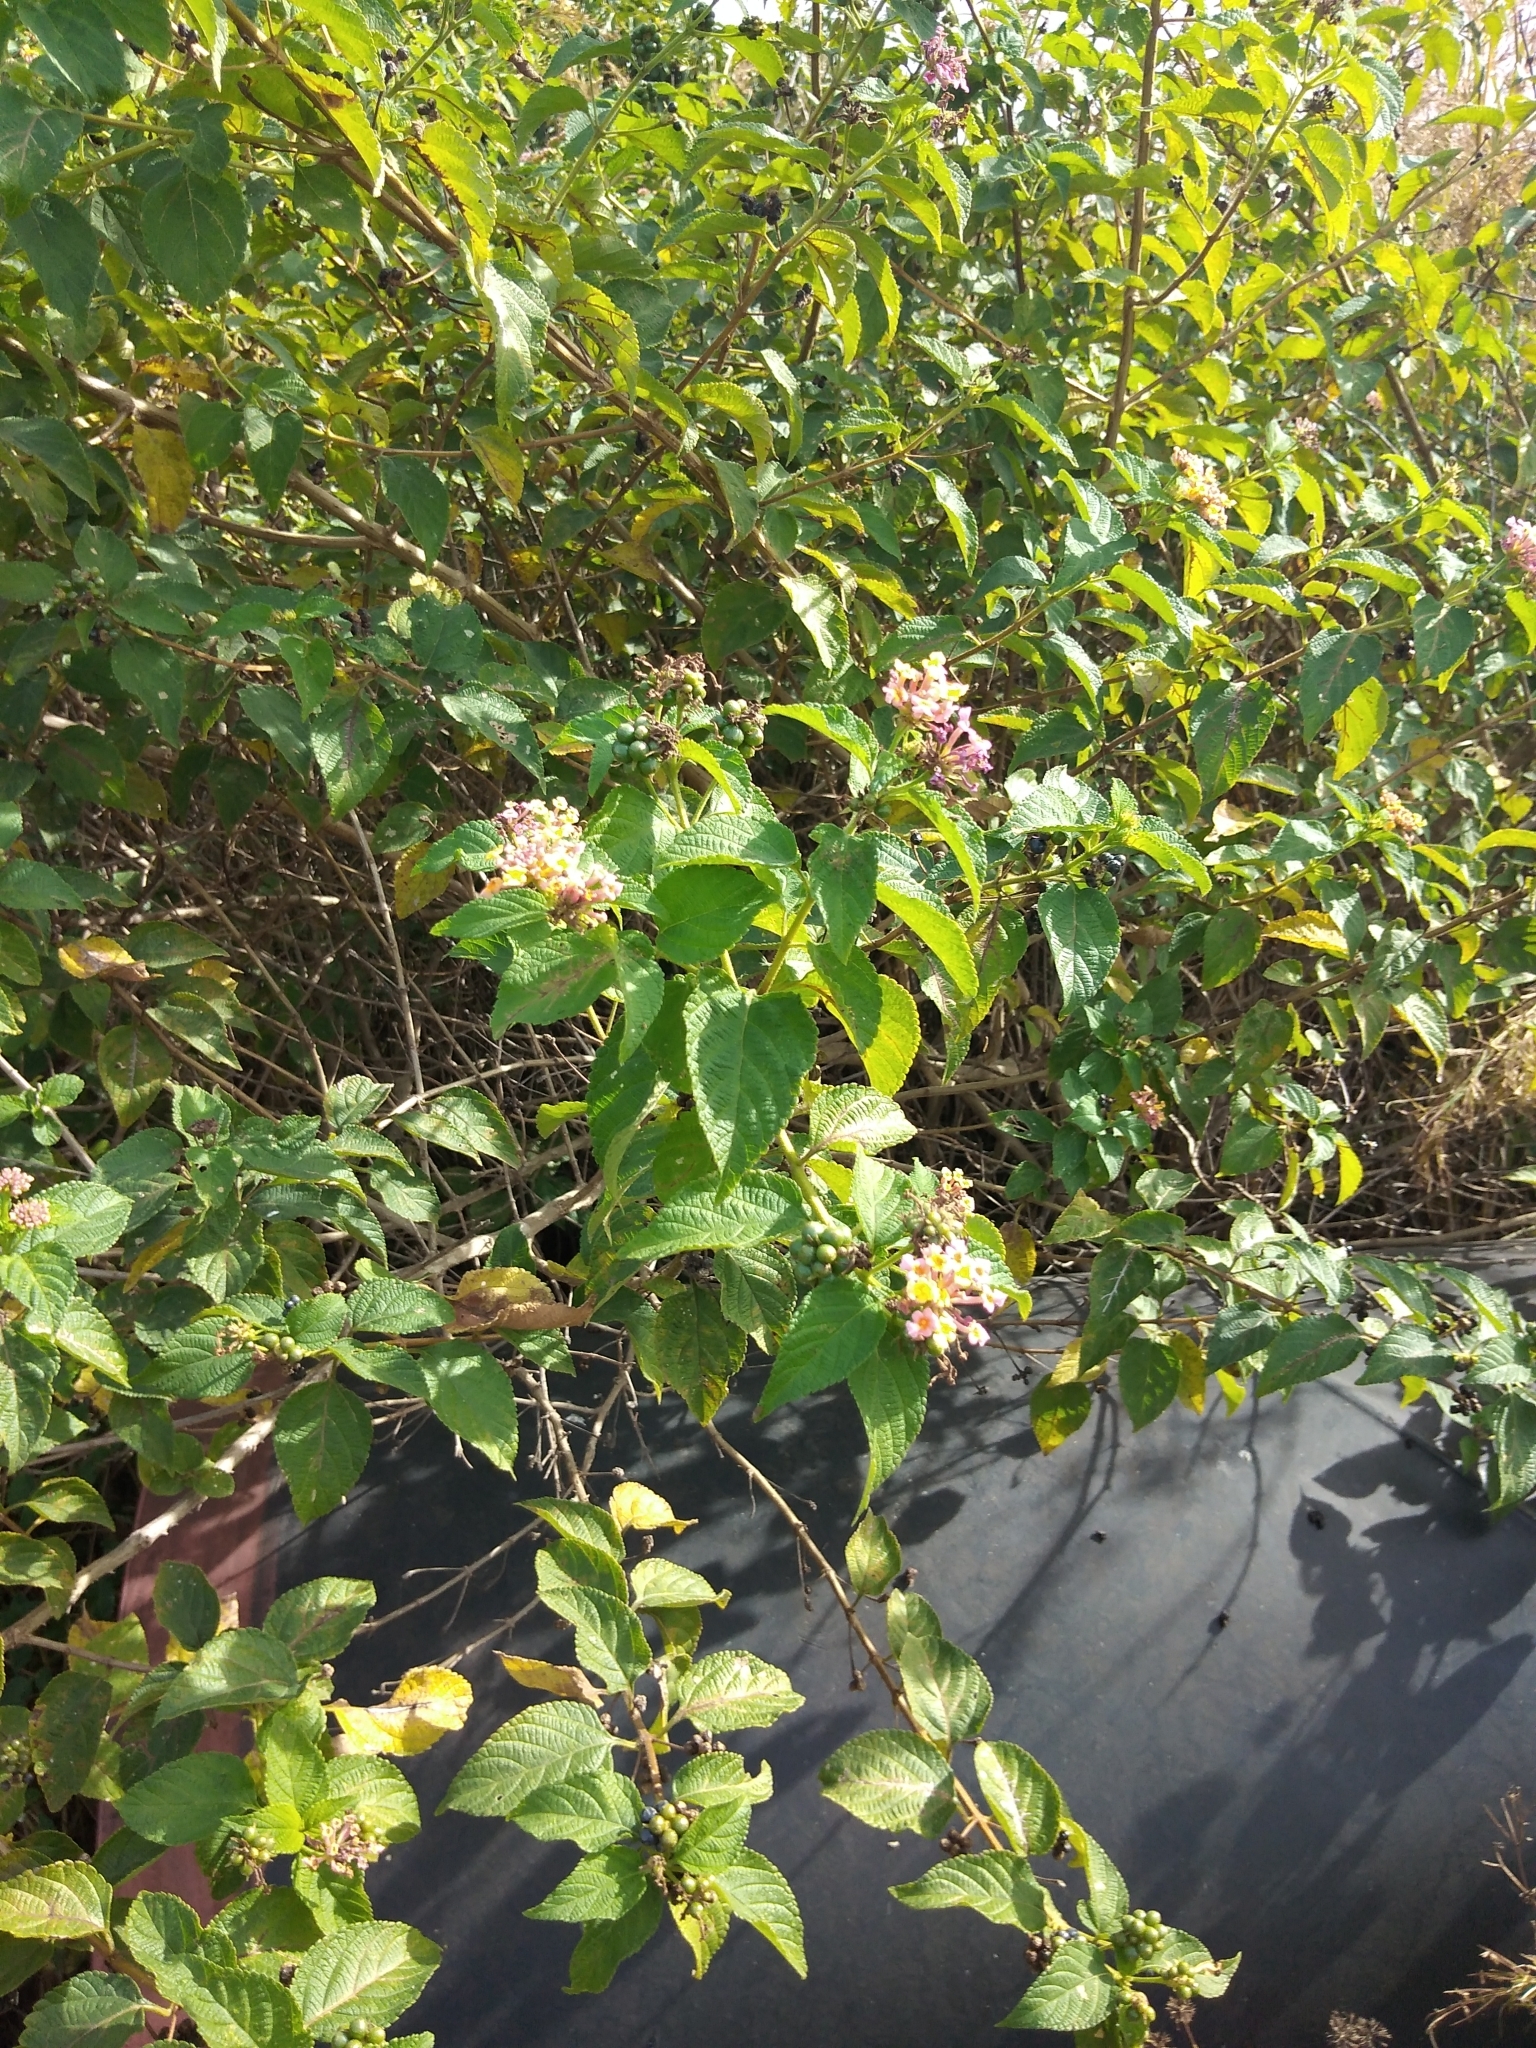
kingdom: Plantae
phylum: Tracheophyta
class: Magnoliopsida
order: Lamiales
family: Verbenaceae
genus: Lantana
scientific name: Lantana camara
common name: Lantana
